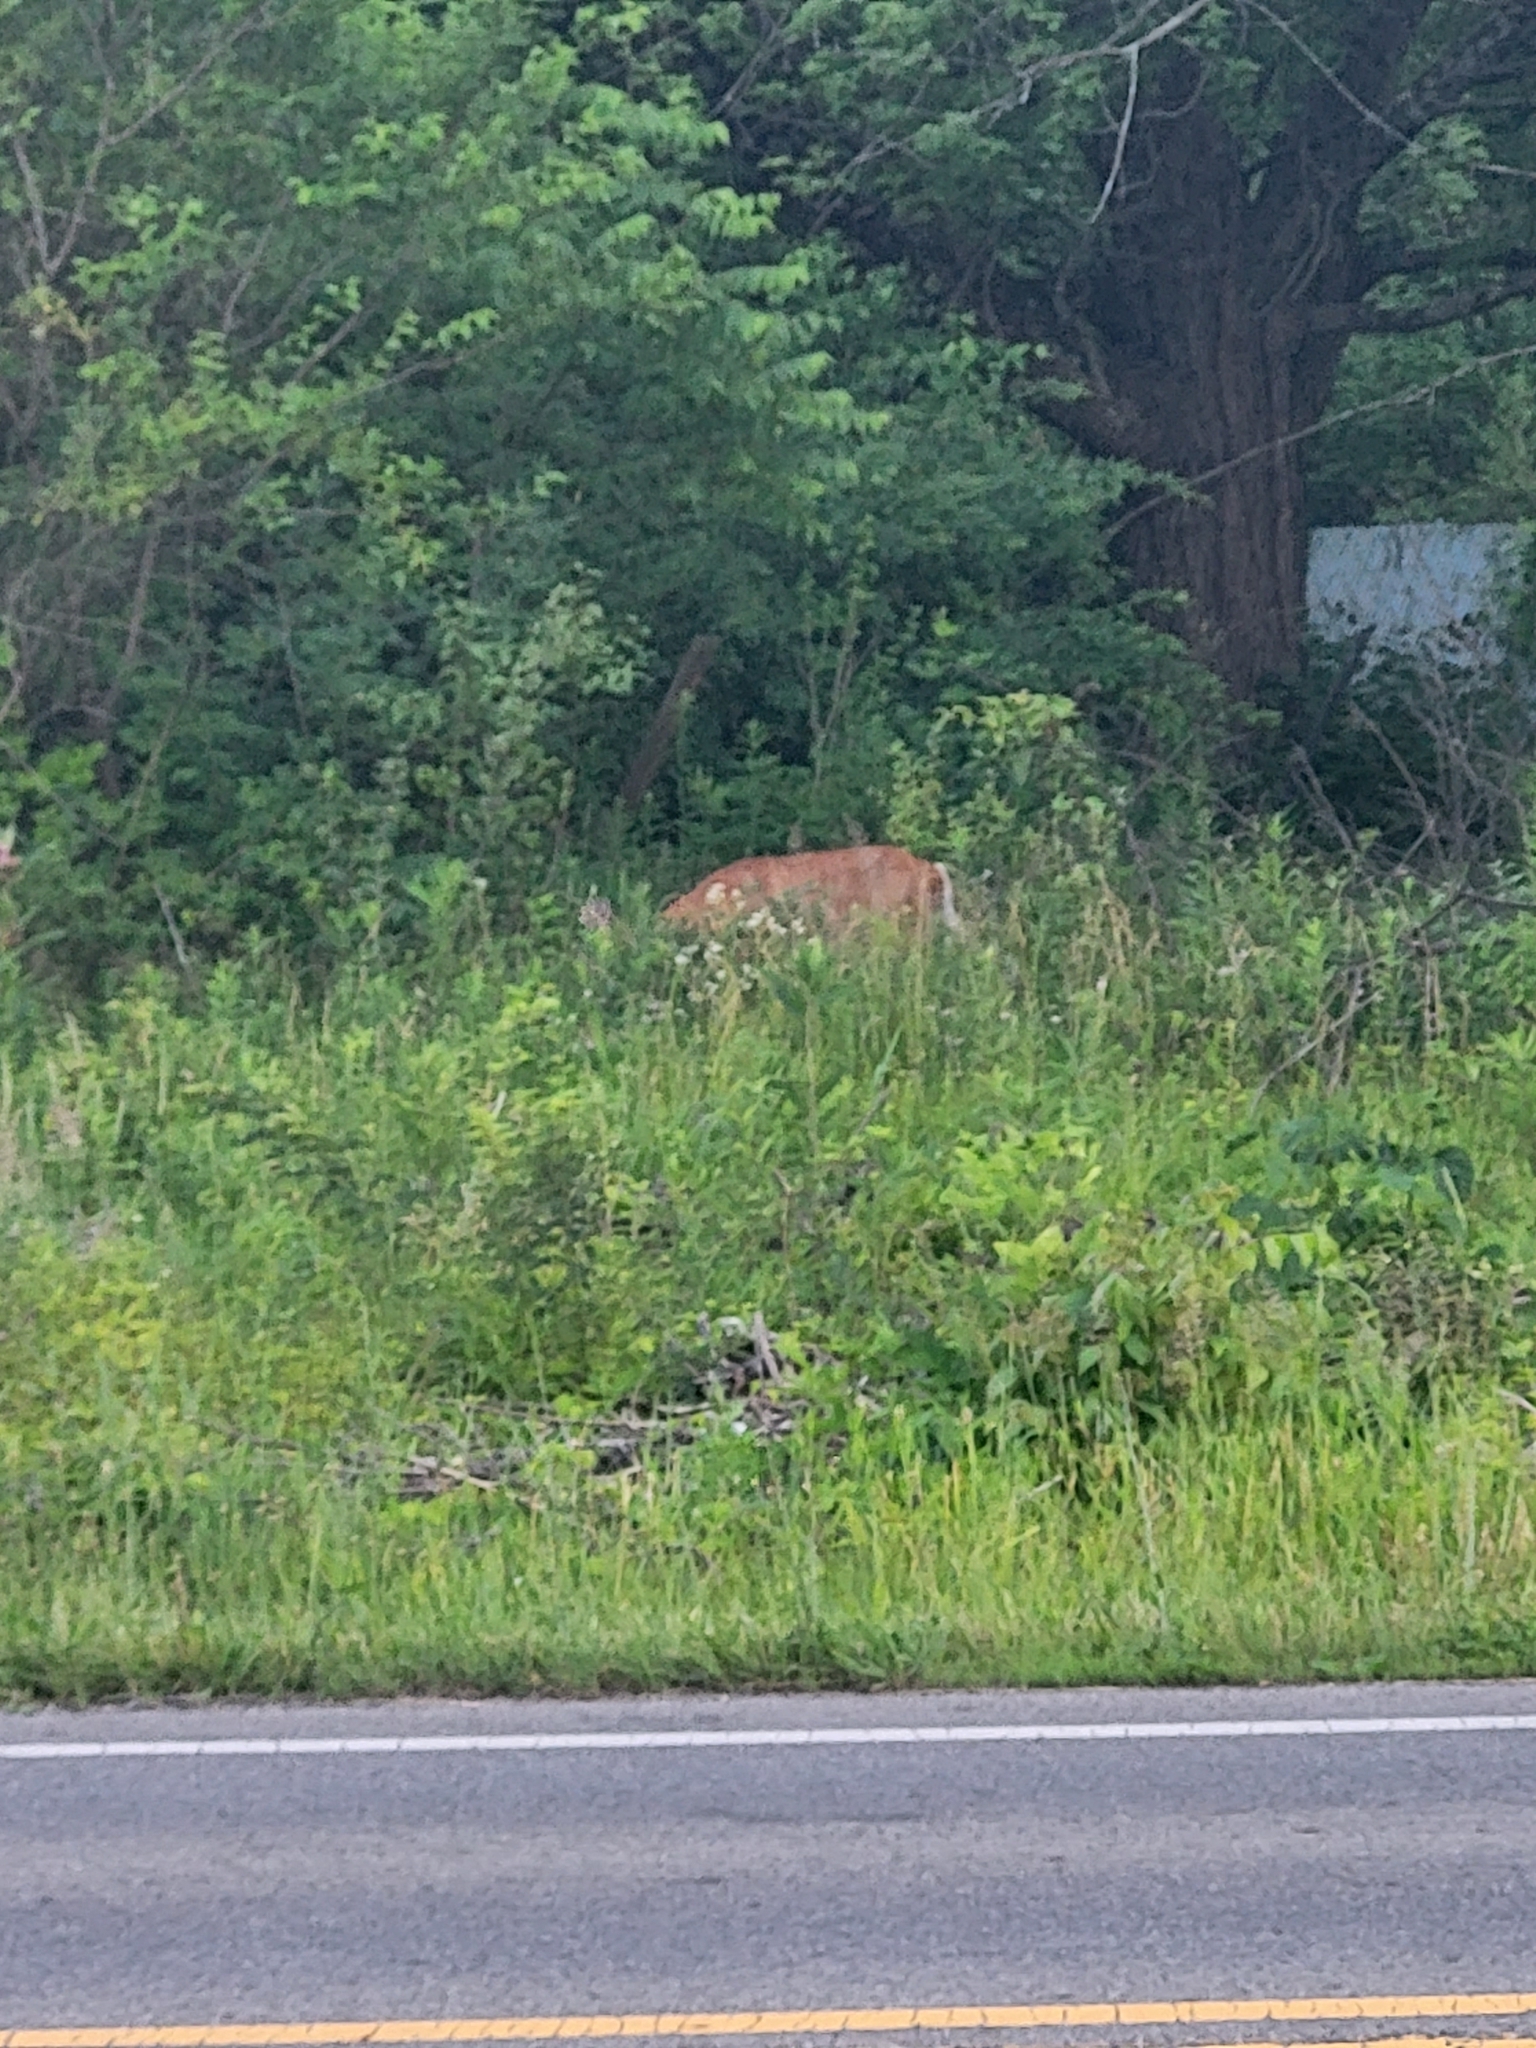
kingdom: Animalia
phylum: Chordata
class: Mammalia
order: Artiodactyla
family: Cervidae
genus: Odocoileus
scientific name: Odocoileus virginianus
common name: White-tailed deer
